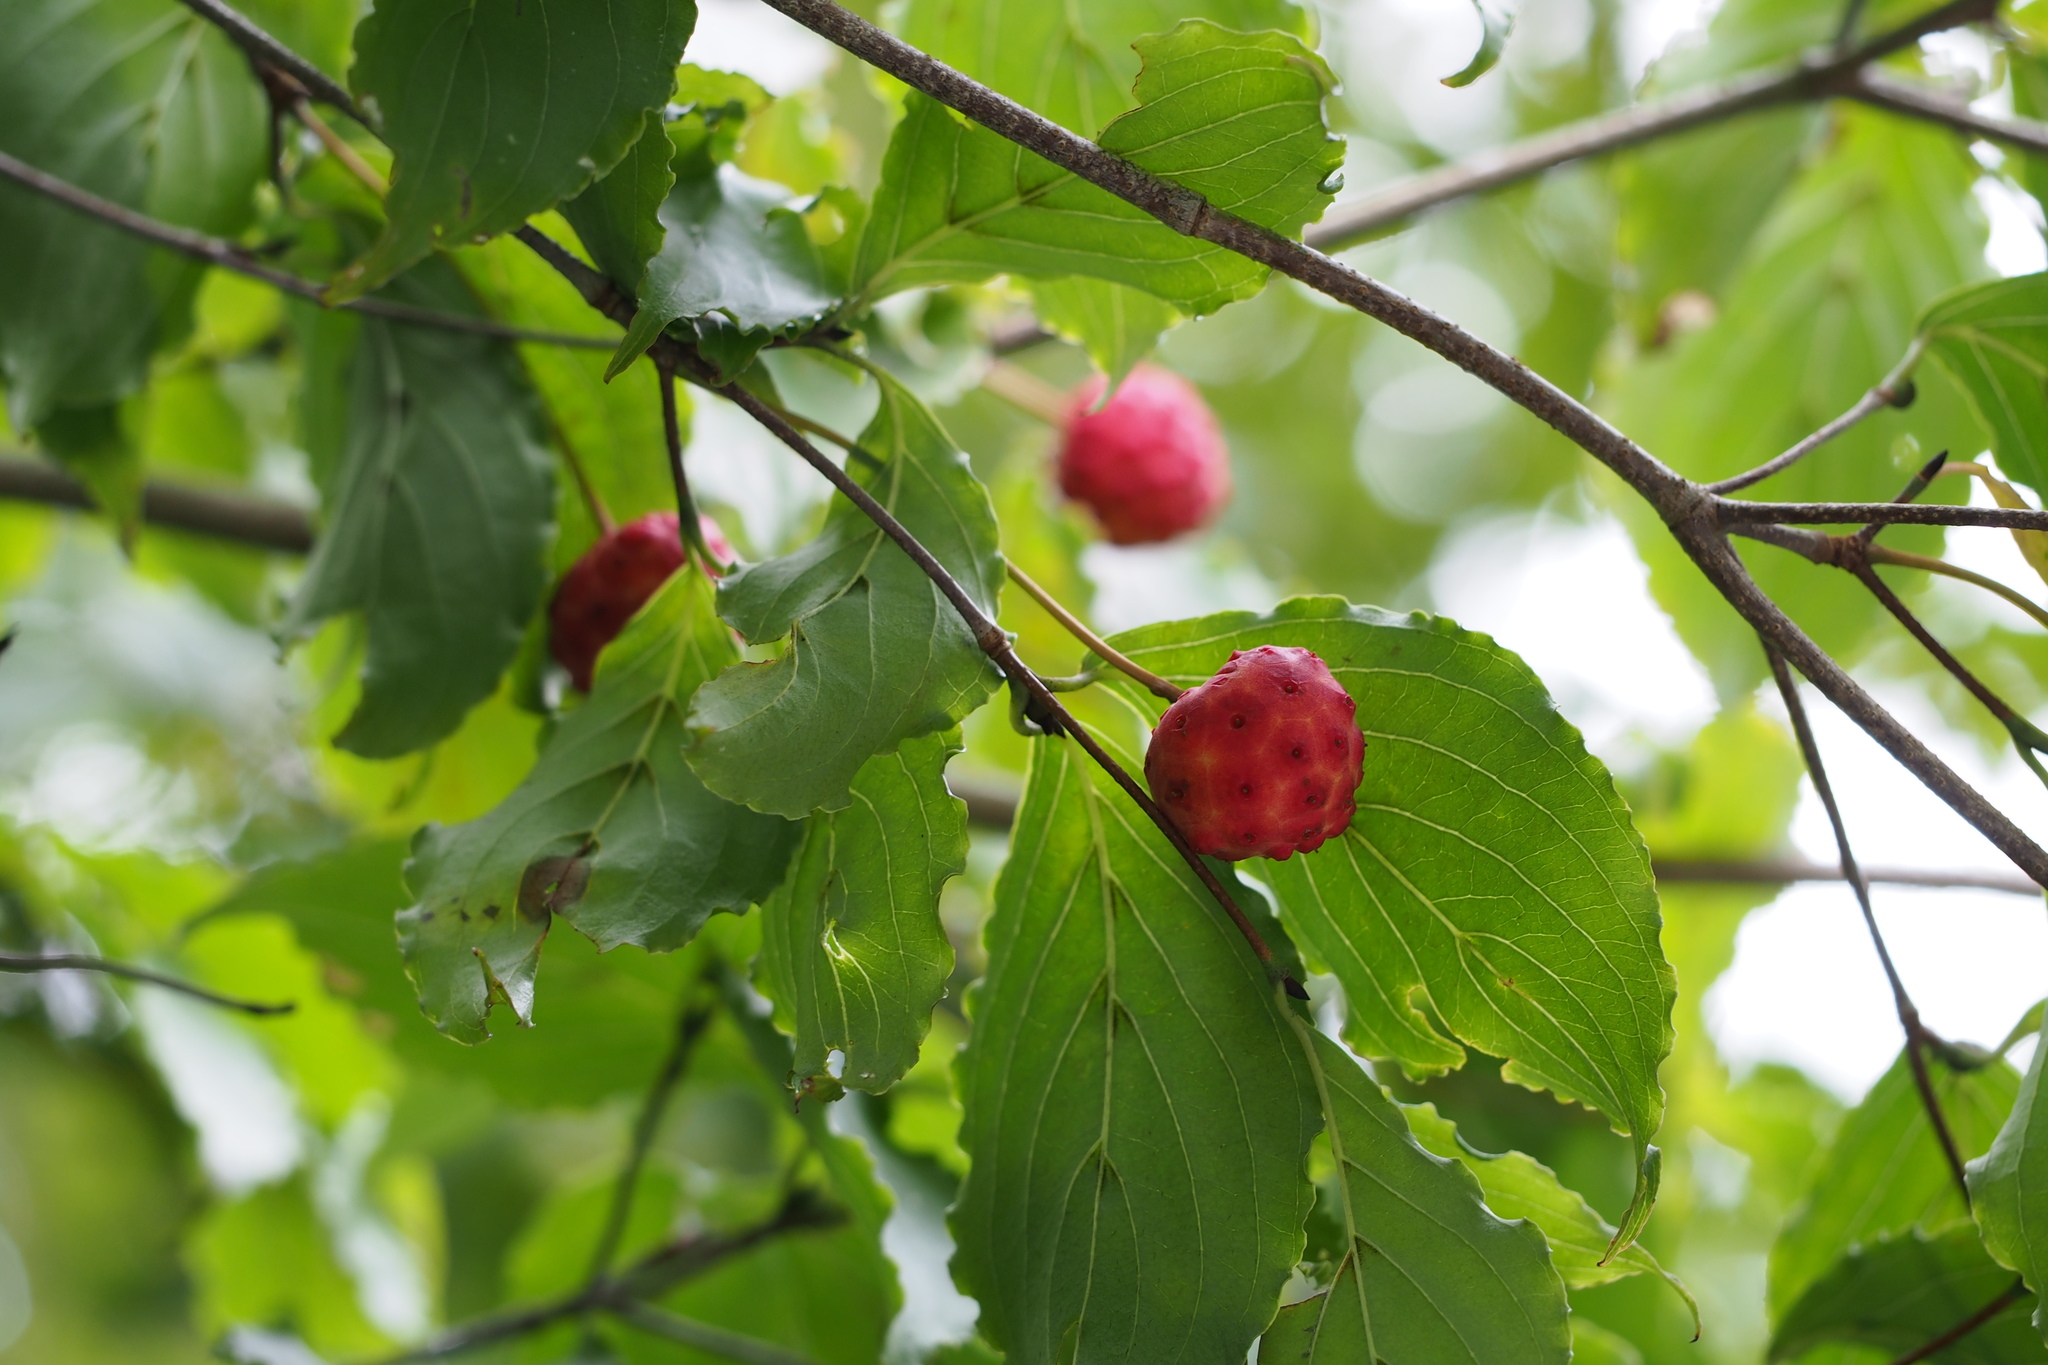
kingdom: Plantae
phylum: Tracheophyta
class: Magnoliopsida
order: Cornales
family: Cornaceae
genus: Cornus
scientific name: Cornus kousa
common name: Japanese dogwood
